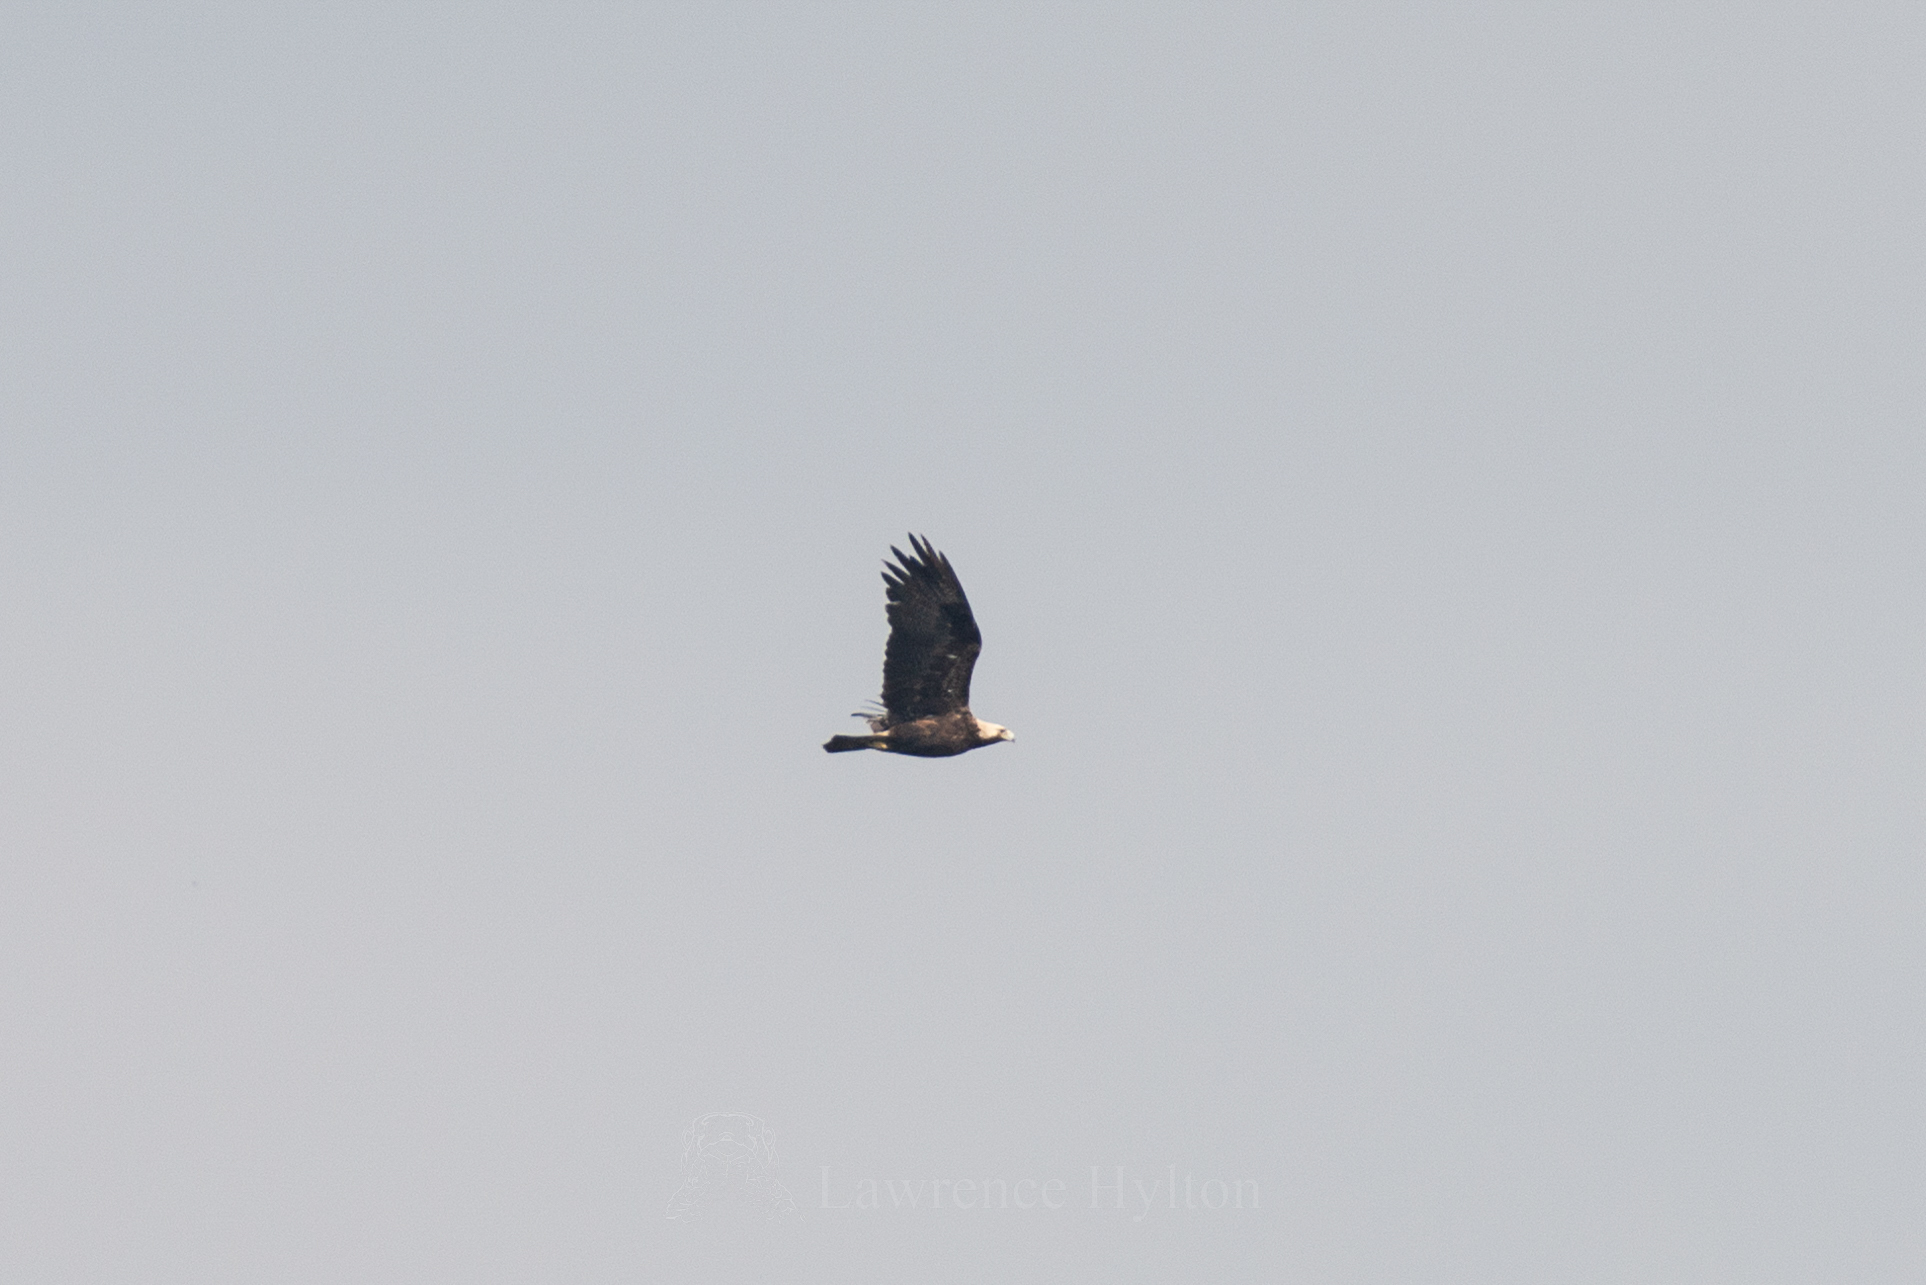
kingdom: Animalia
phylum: Chordata
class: Aves
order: Accipitriformes
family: Accipitridae
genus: Aquila
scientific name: Aquila heliaca
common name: Eastern imperial eagle
